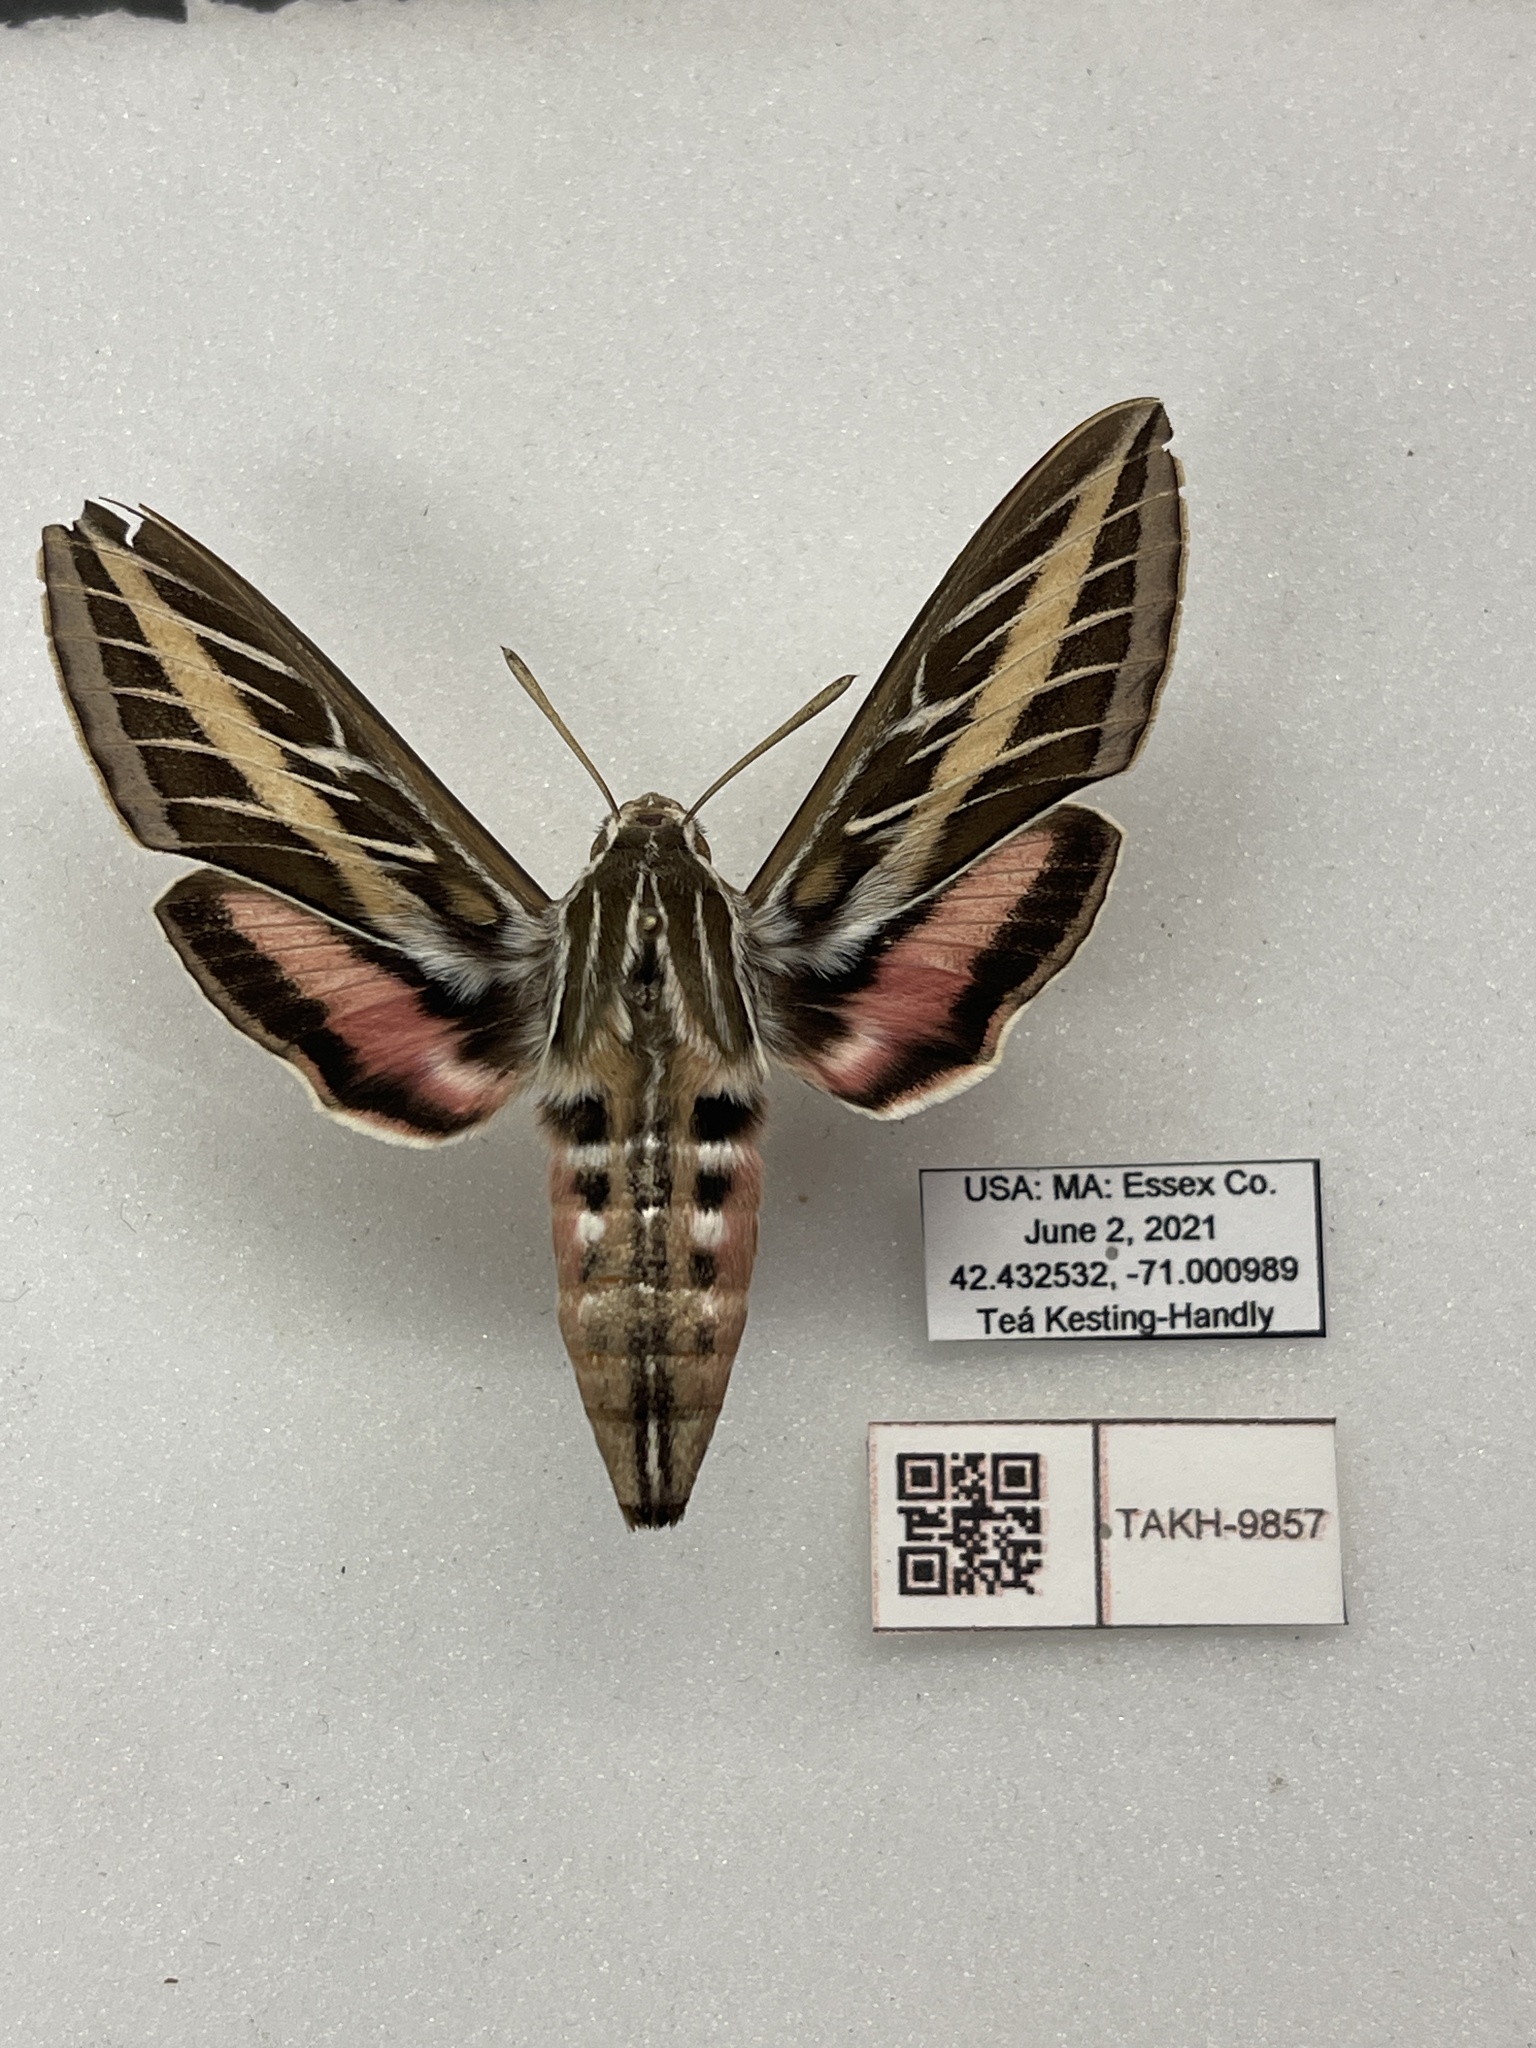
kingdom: Animalia
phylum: Arthropoda
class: Insecta
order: Lepidoptera
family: Sphingidae
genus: Hyles
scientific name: Hyles lineata
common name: White-lined sphinx
